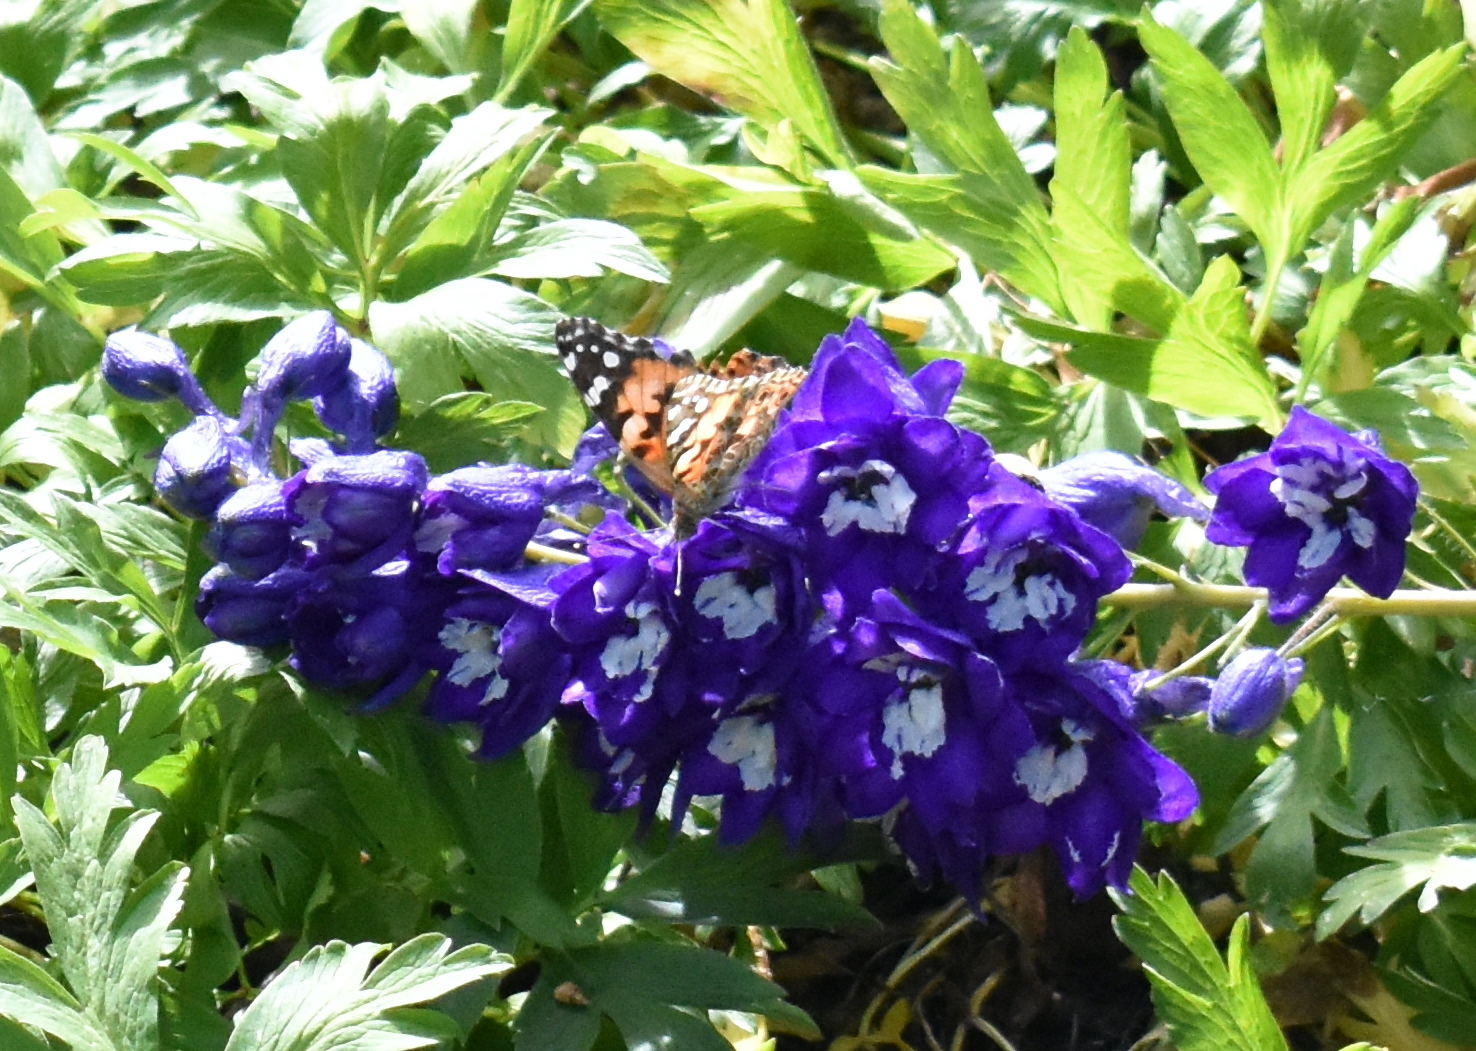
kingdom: Animalia
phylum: Arthropoda
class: Insecta
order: Lepidoptera
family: Nymphalidae
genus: Vanessa
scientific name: Vanessa cardui
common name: Painted lady
